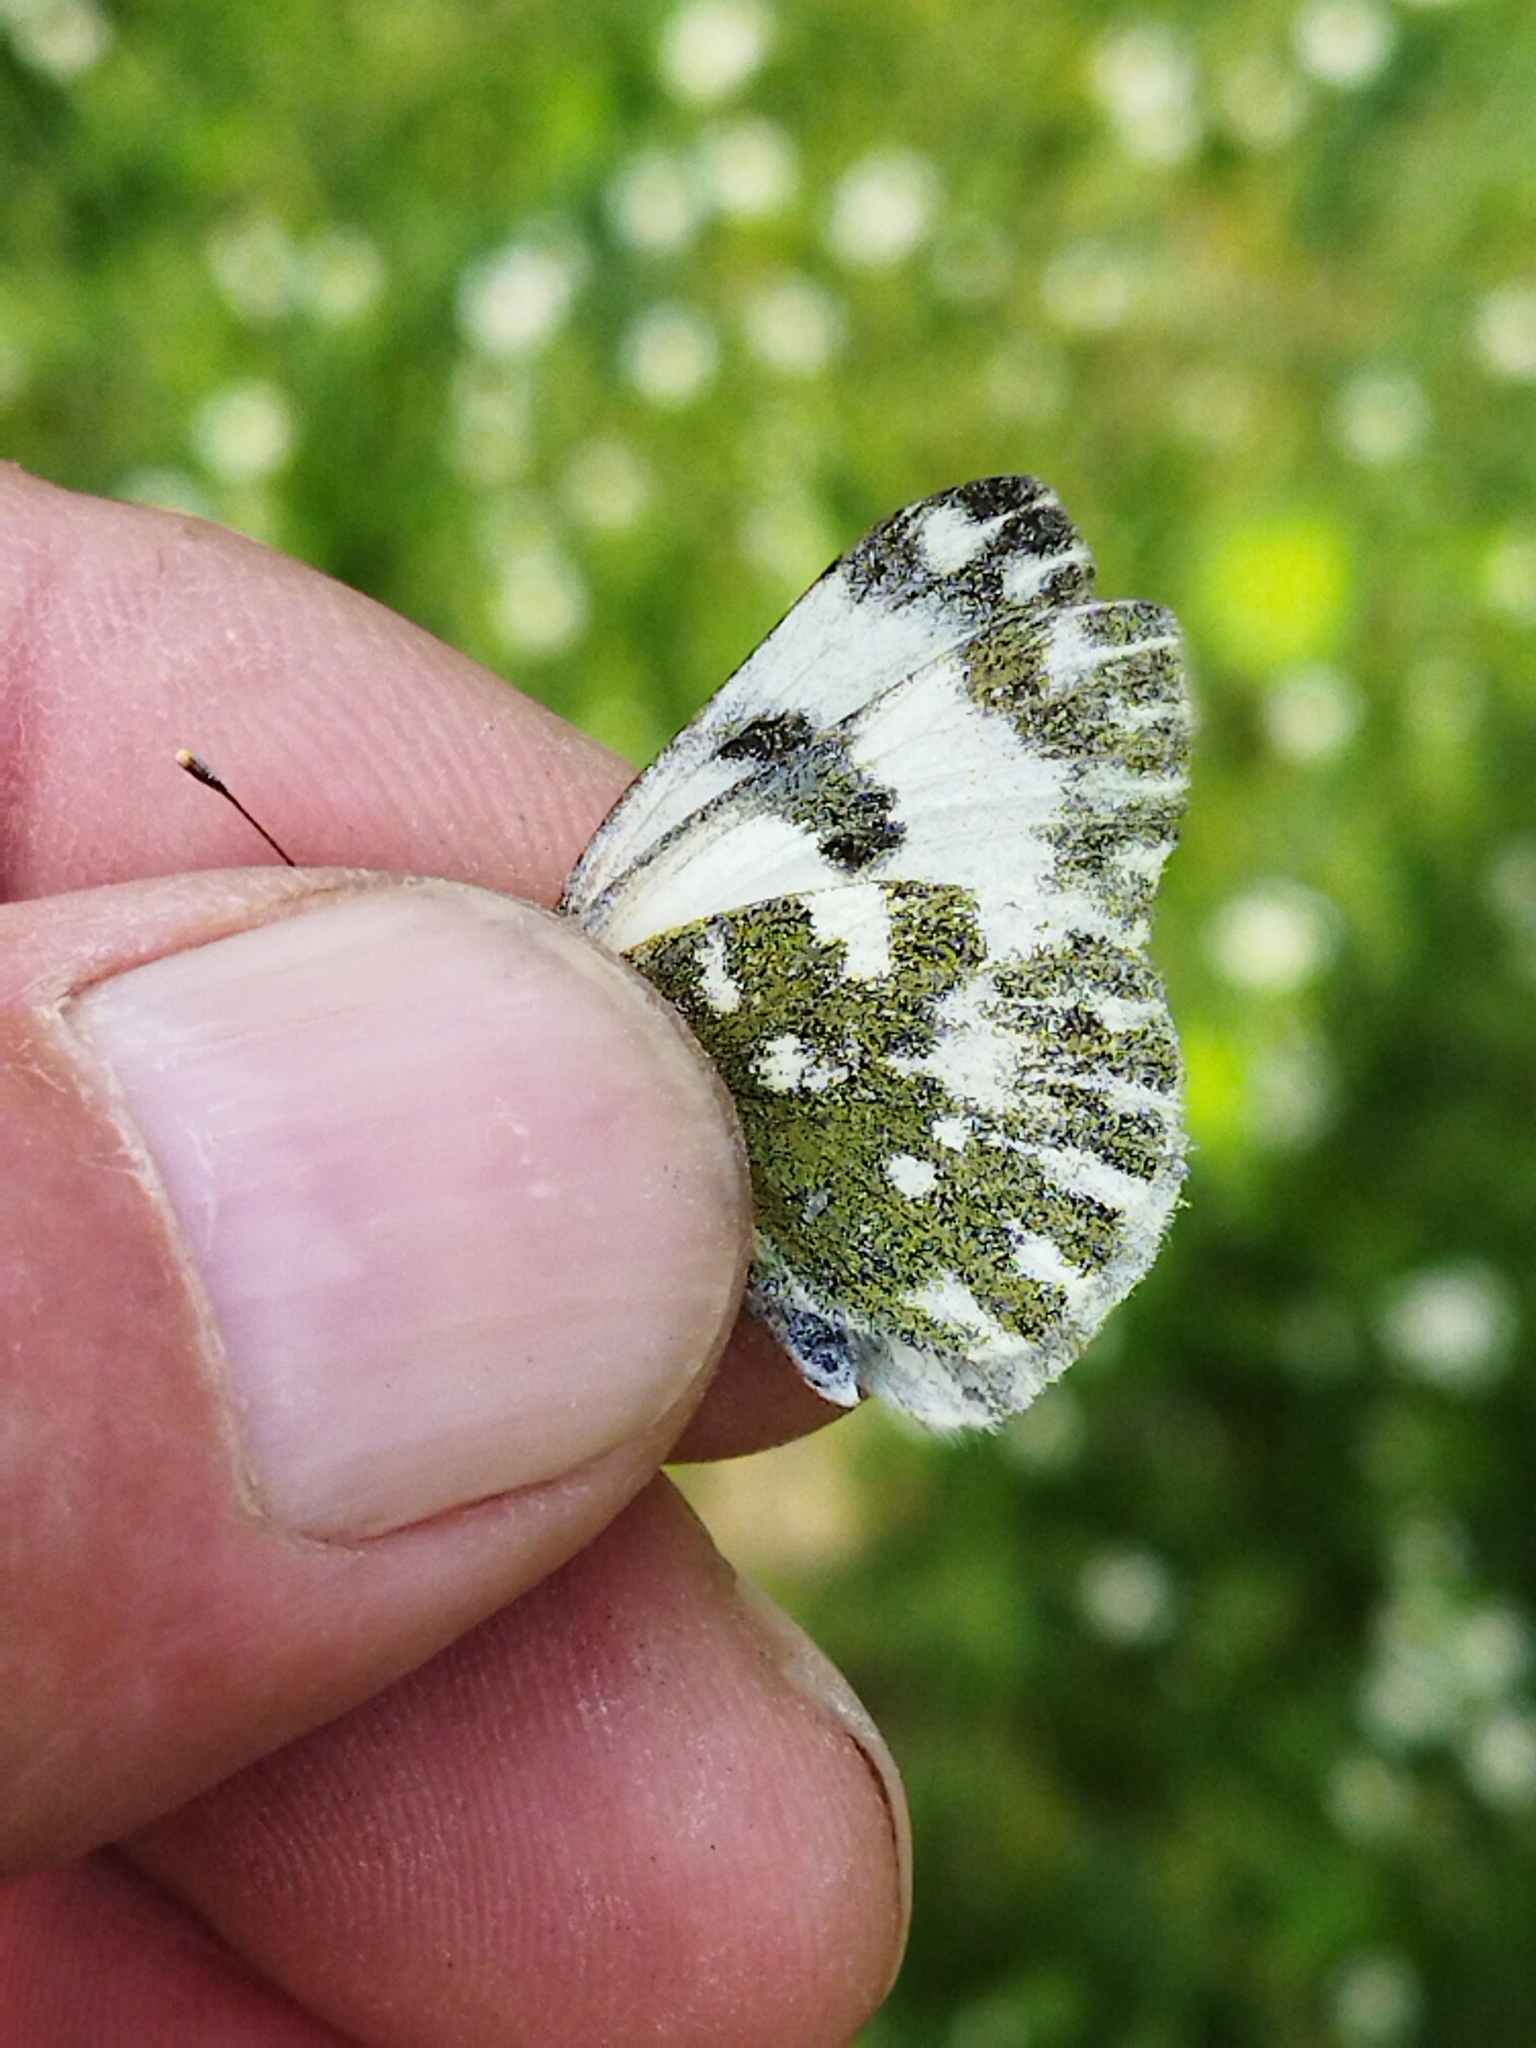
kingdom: Animalia
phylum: Arthropoda
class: Insecta
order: Lepidoptera
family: Pieridae
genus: Pontia
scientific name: Pontia edusa
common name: Eastern bath white
